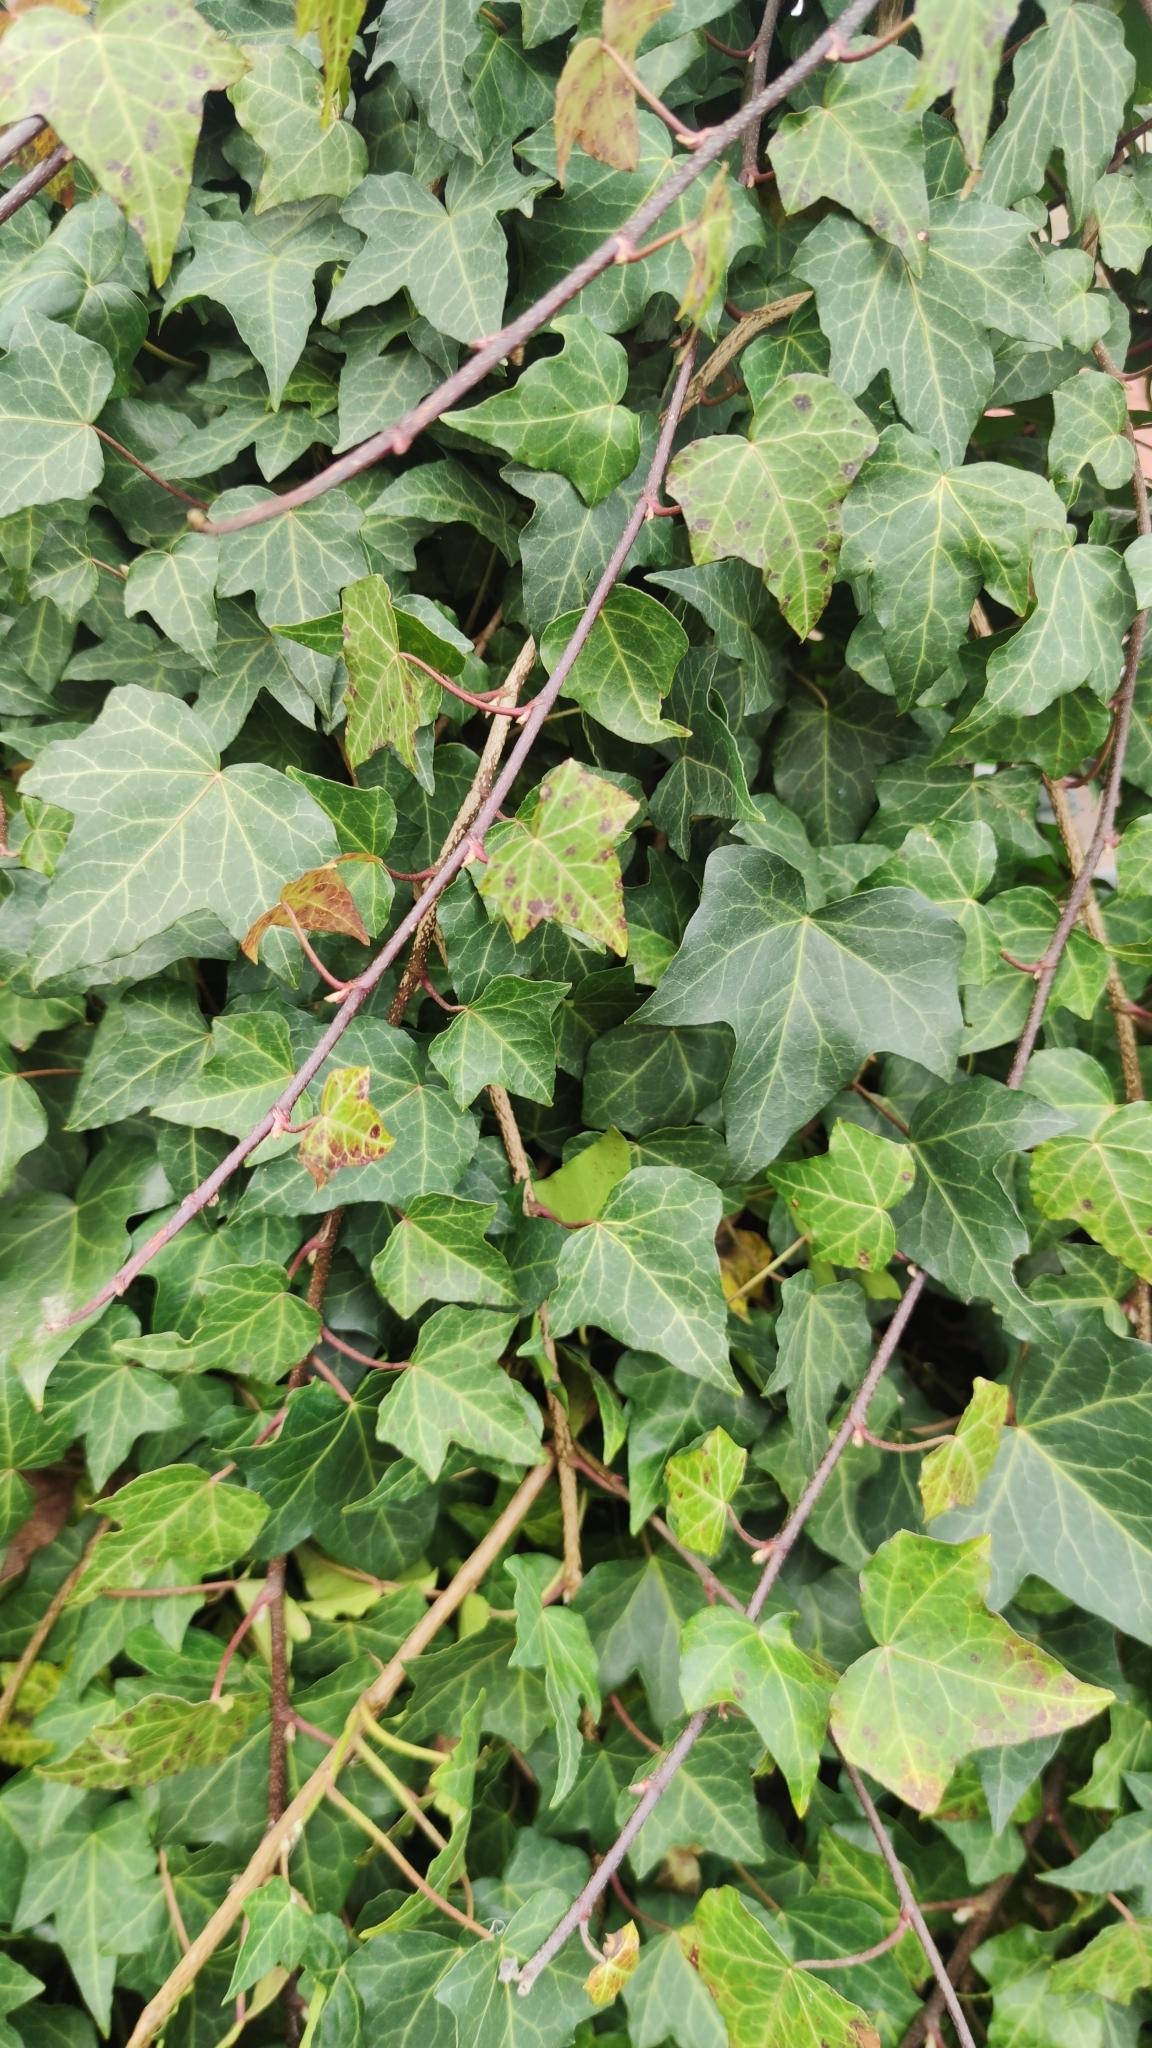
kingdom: Plantae
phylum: Tracheophyta
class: Magnoliopsida
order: Apiales
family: Araliaceae
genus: Hedera
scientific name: Hedera helix
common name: Ivy
